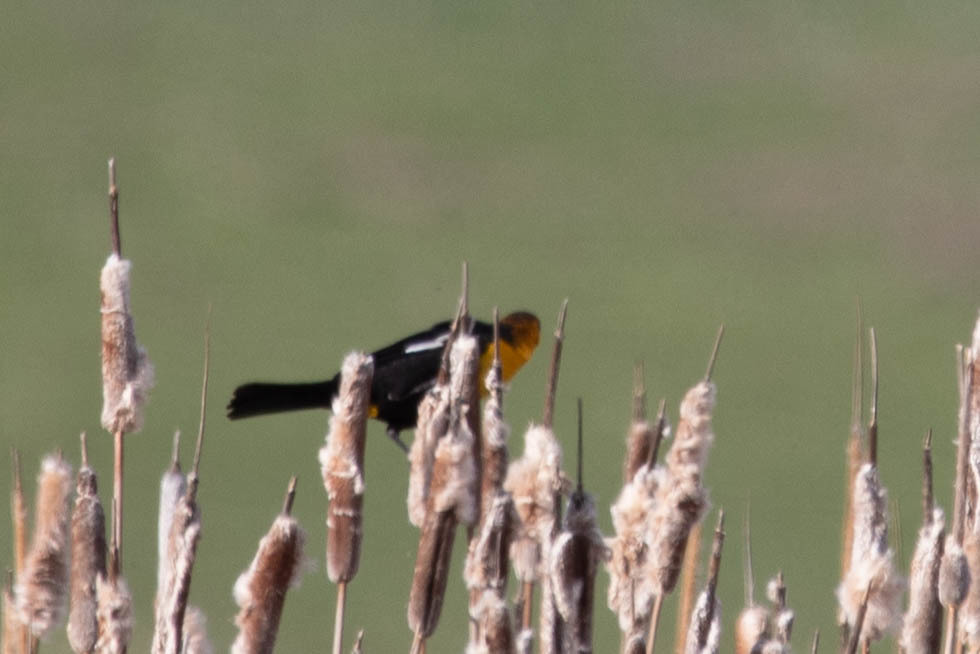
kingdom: Animalia
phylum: Chordata
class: Aves
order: Passeriformes
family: Icteridae
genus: Xanthocephalus
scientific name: Xanthocephalus xanthocephalus
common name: Yellow-headed blackbird
